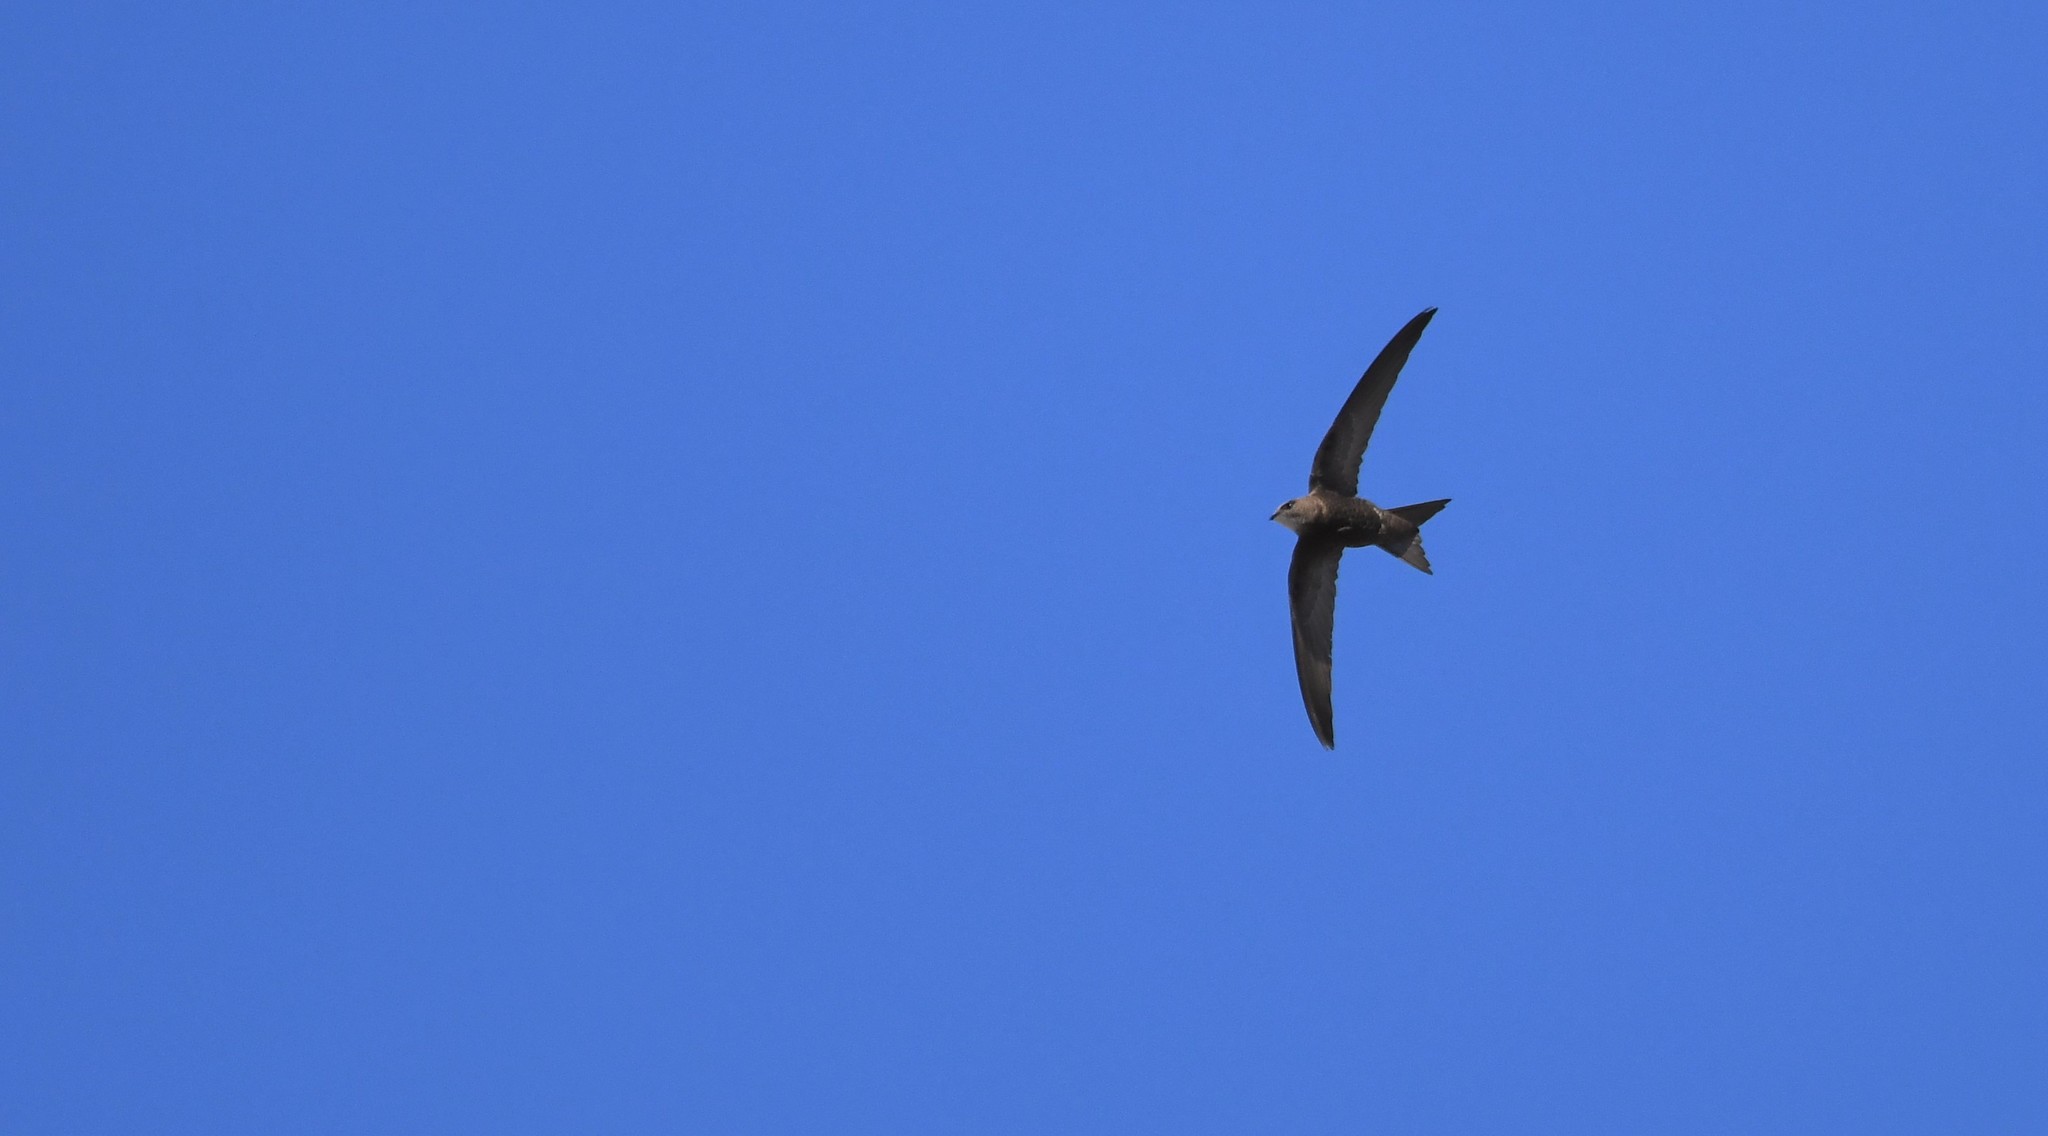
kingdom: Animalia
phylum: Chordata
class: Aves
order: Apodiformes
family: Apodidae
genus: Apus
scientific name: Apus pallidus
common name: Pallid swift
